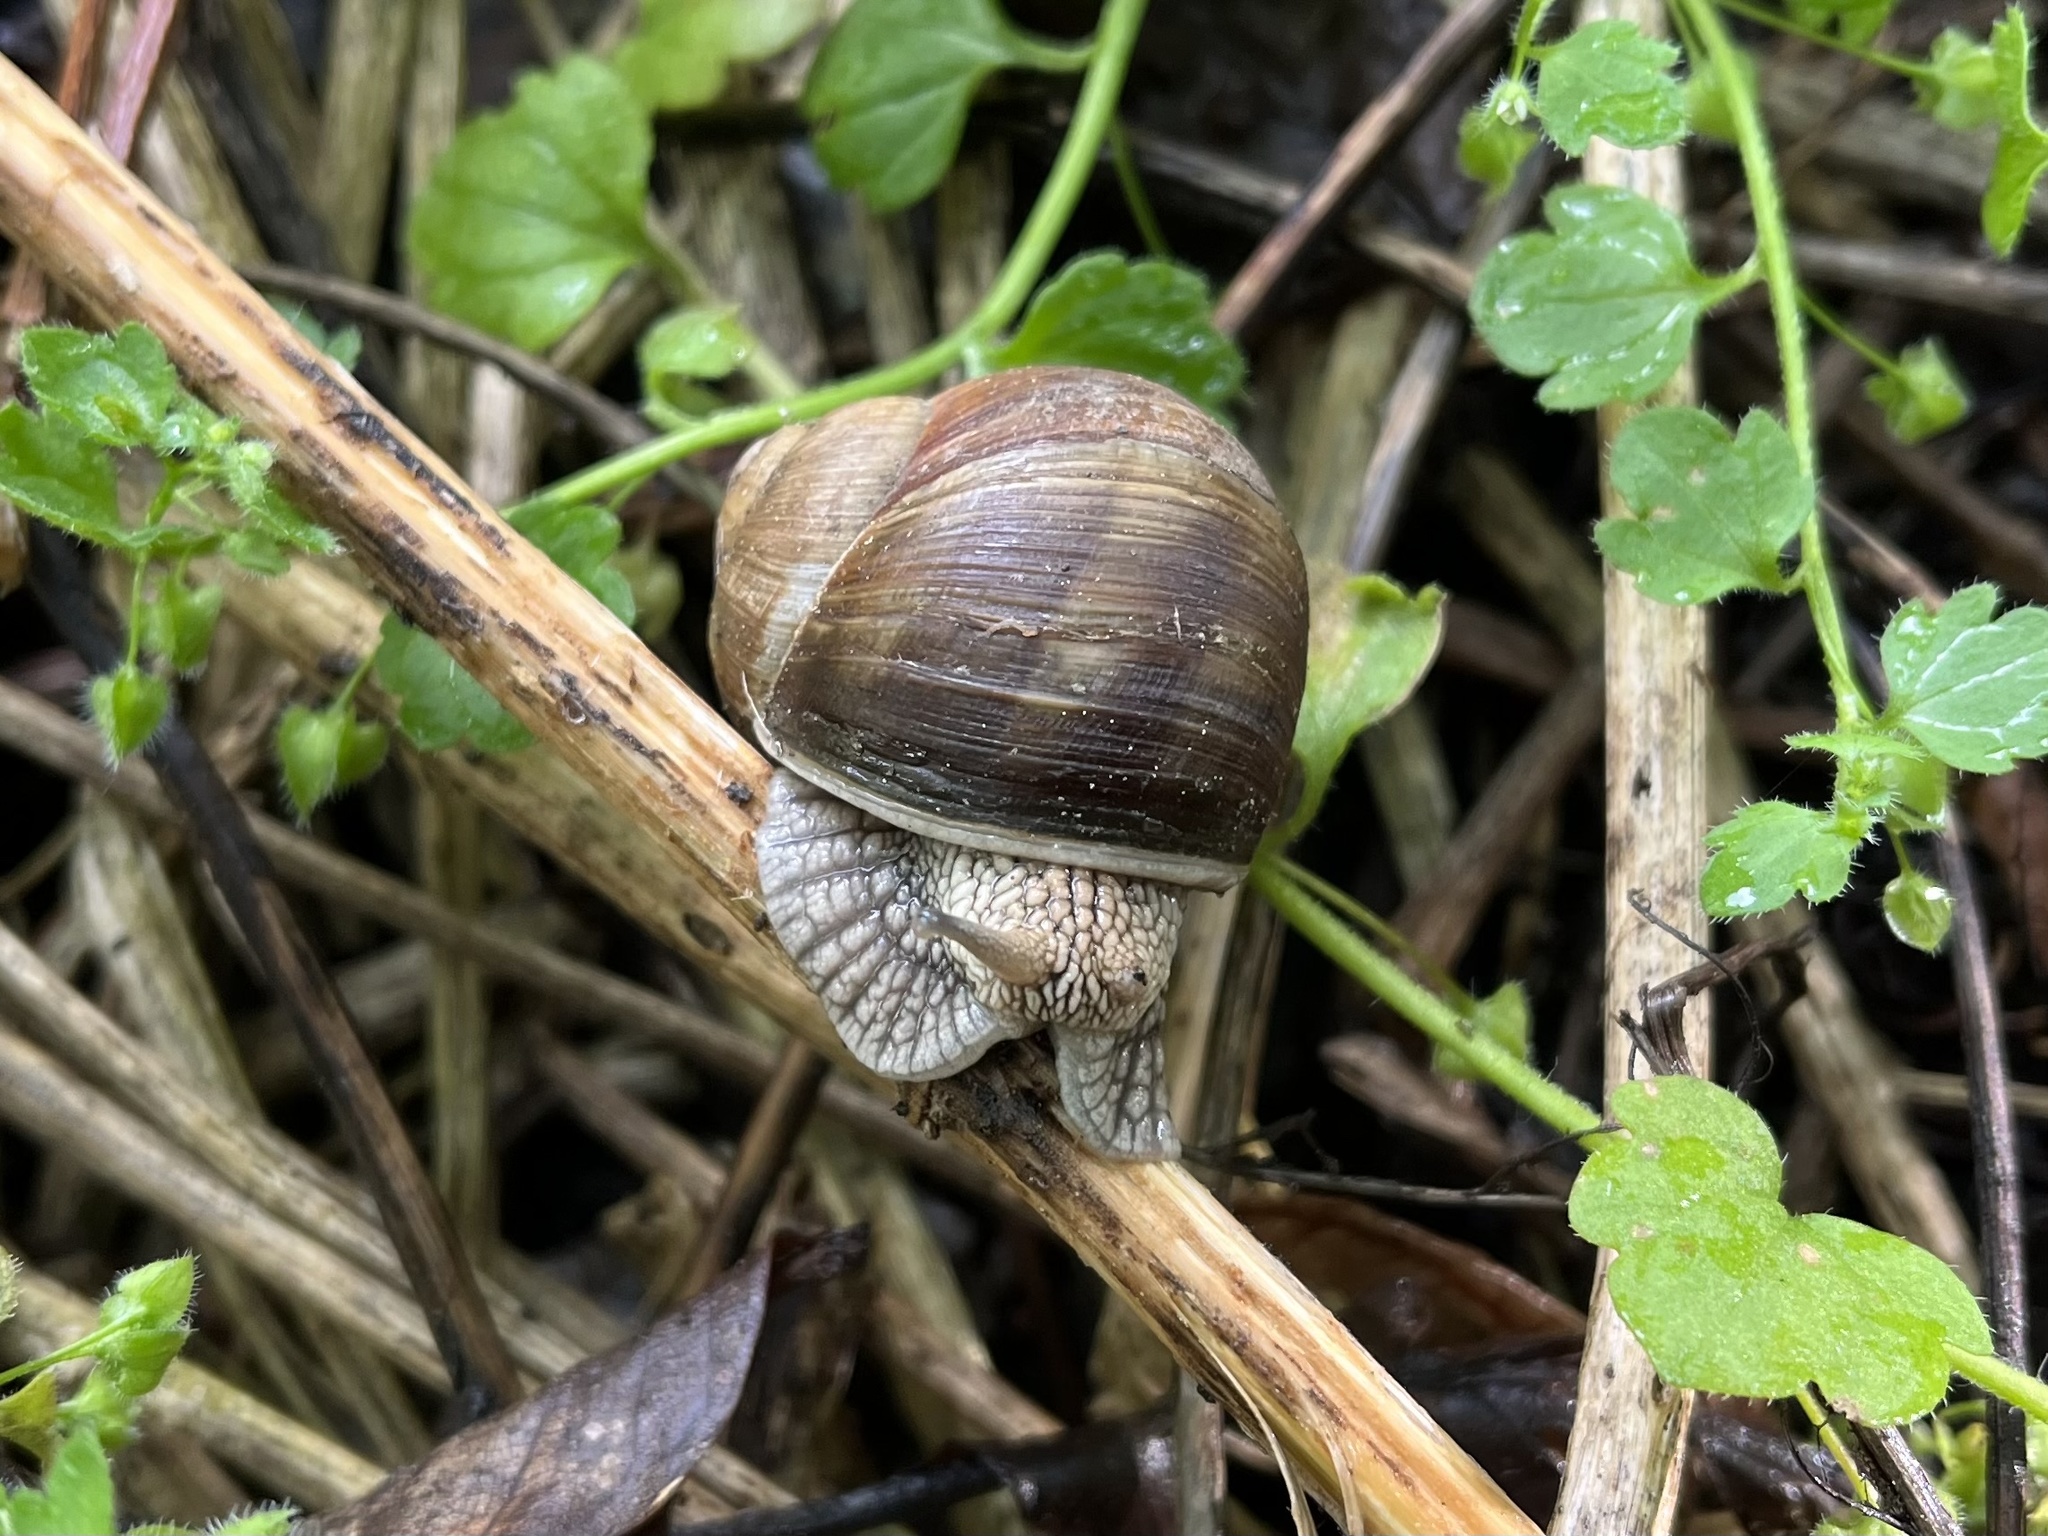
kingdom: Animalia
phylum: Mollusca
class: Gastropoda
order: Stylommatophora
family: Helicidae
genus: Helix
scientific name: Helix pomatia
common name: Roman snail
